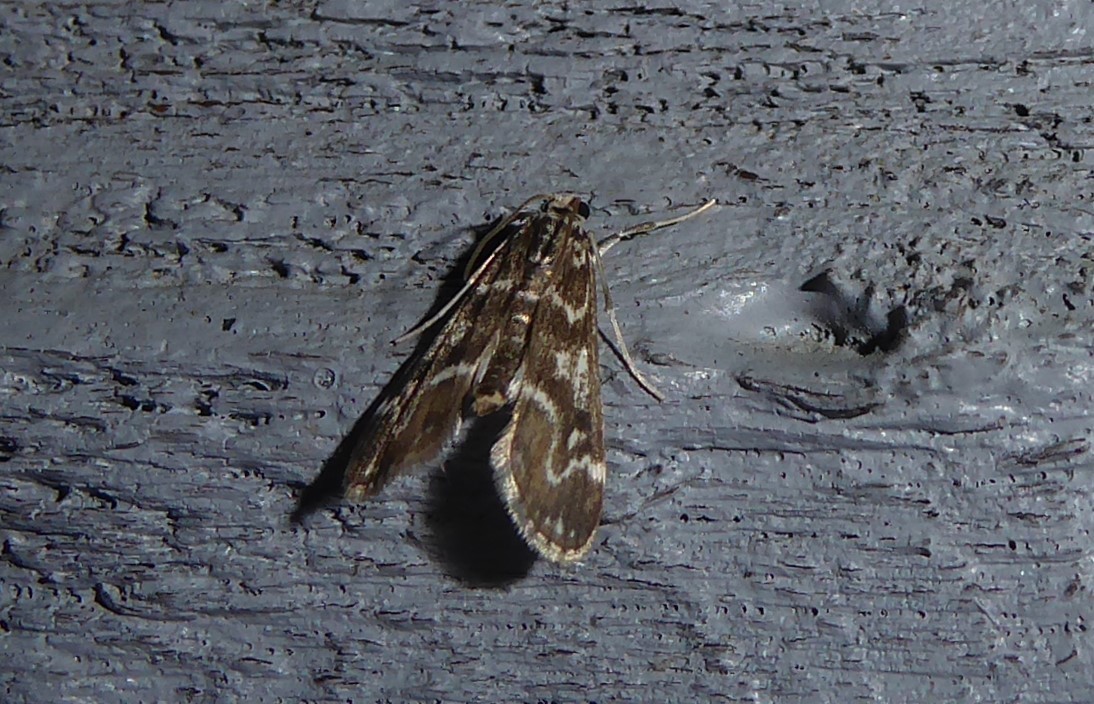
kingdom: Animalia
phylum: Arthropoda
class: Insecta
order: Lepidoptera
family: Crambidae
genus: Hygraula
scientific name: Hygraula nitens
